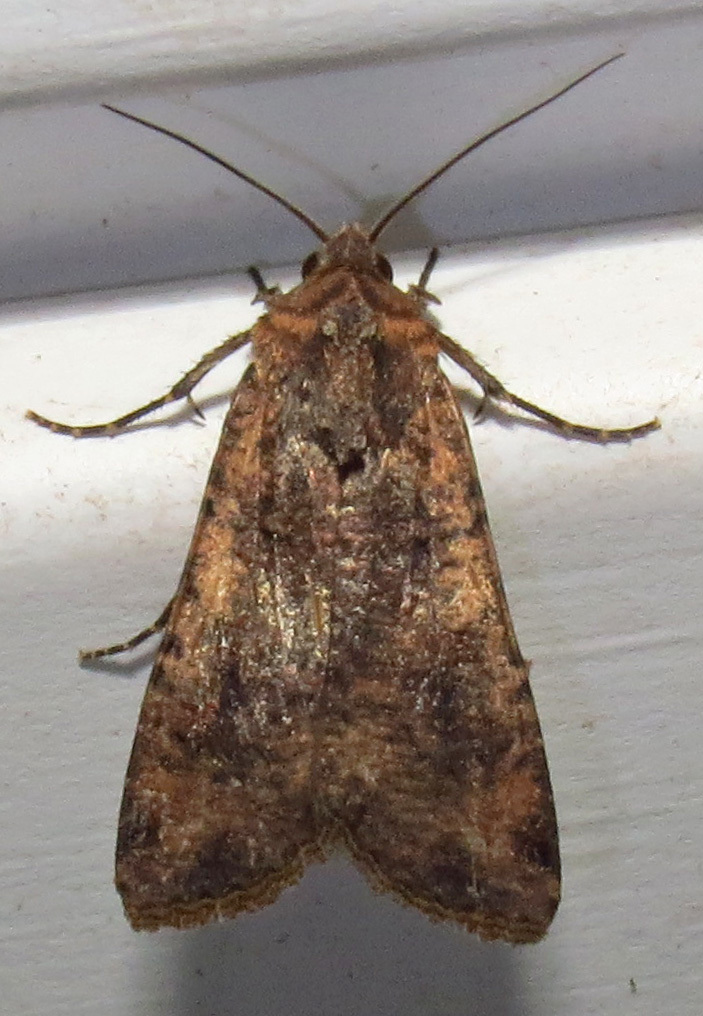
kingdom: Animalia
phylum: Arthropoda
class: Insecta
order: Lepidoptera
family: Noctuidae
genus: Peridroma
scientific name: Peridroma saucia
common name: Pearly underwing
